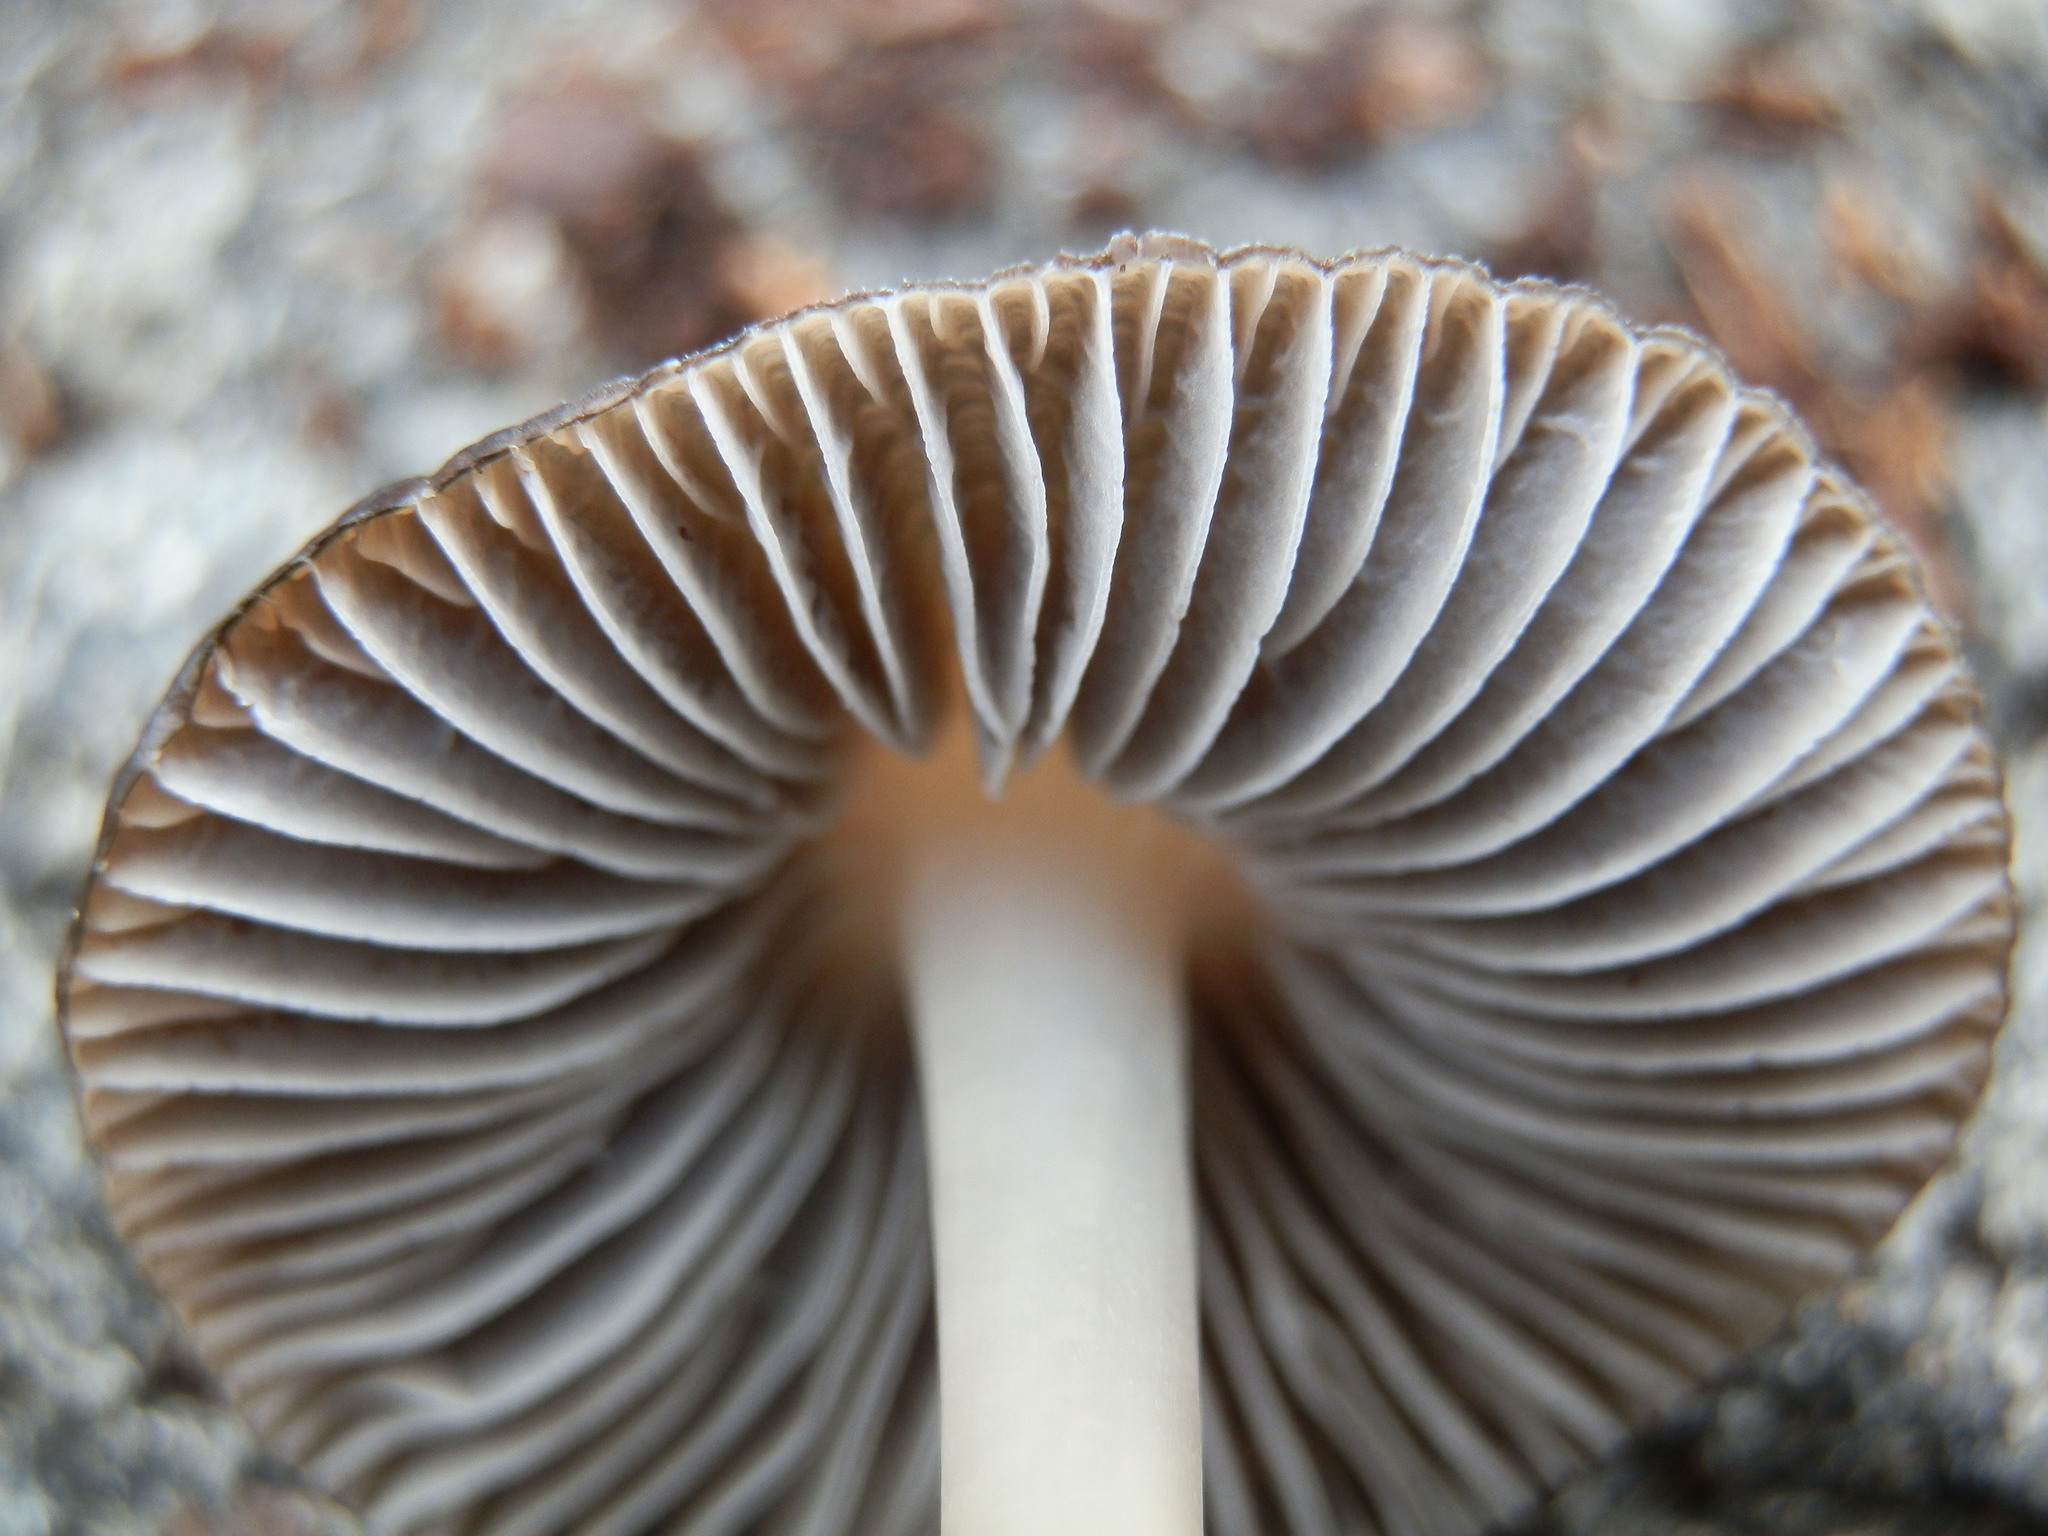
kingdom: Fungi
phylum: Basidiomycota
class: Agaricomycetes
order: Agaricales
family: Mycenaceae
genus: Mycena
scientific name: Mycena alcalina
